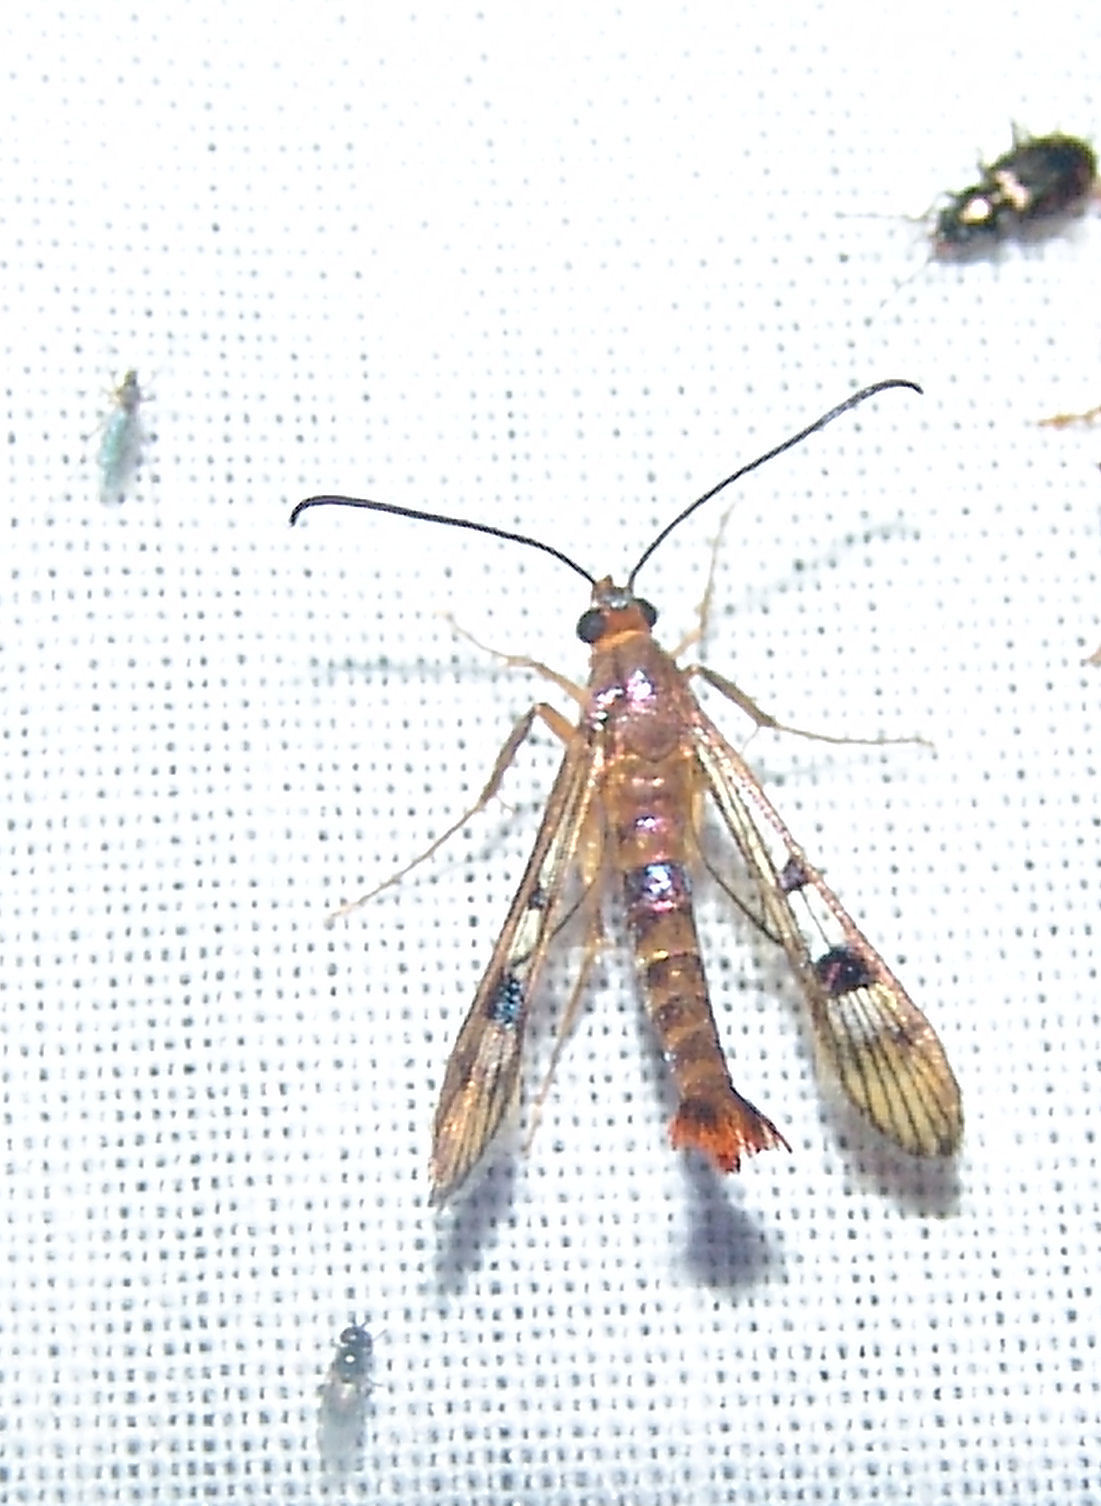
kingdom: Animalia
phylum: Arthropoda
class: Insecta
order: Lepidoptera
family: Sesiidae
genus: Synanthedon
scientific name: Synanthedon acerni
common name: Maple callus borer moth
